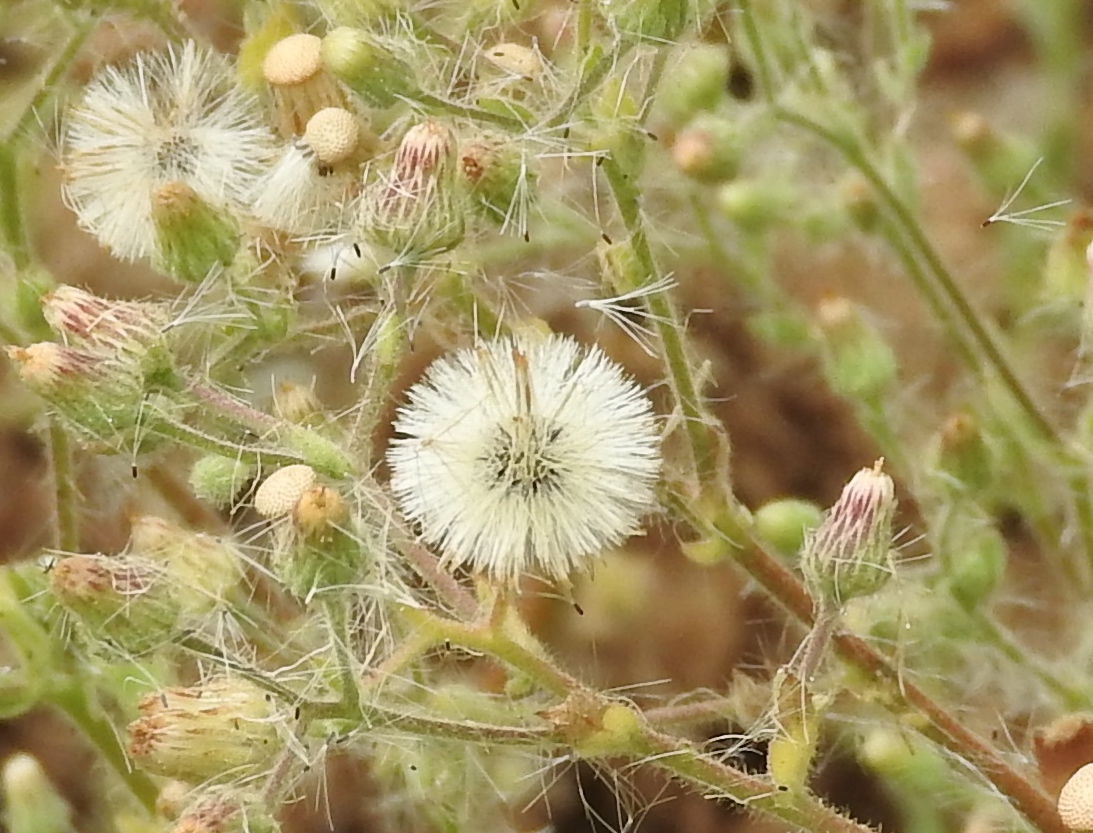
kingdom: Plantae
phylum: Tracheophyta
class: Magnoliopsida
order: Asterales
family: Asteraceae
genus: Pseudoconyza
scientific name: Pseudoconyza viscosa
